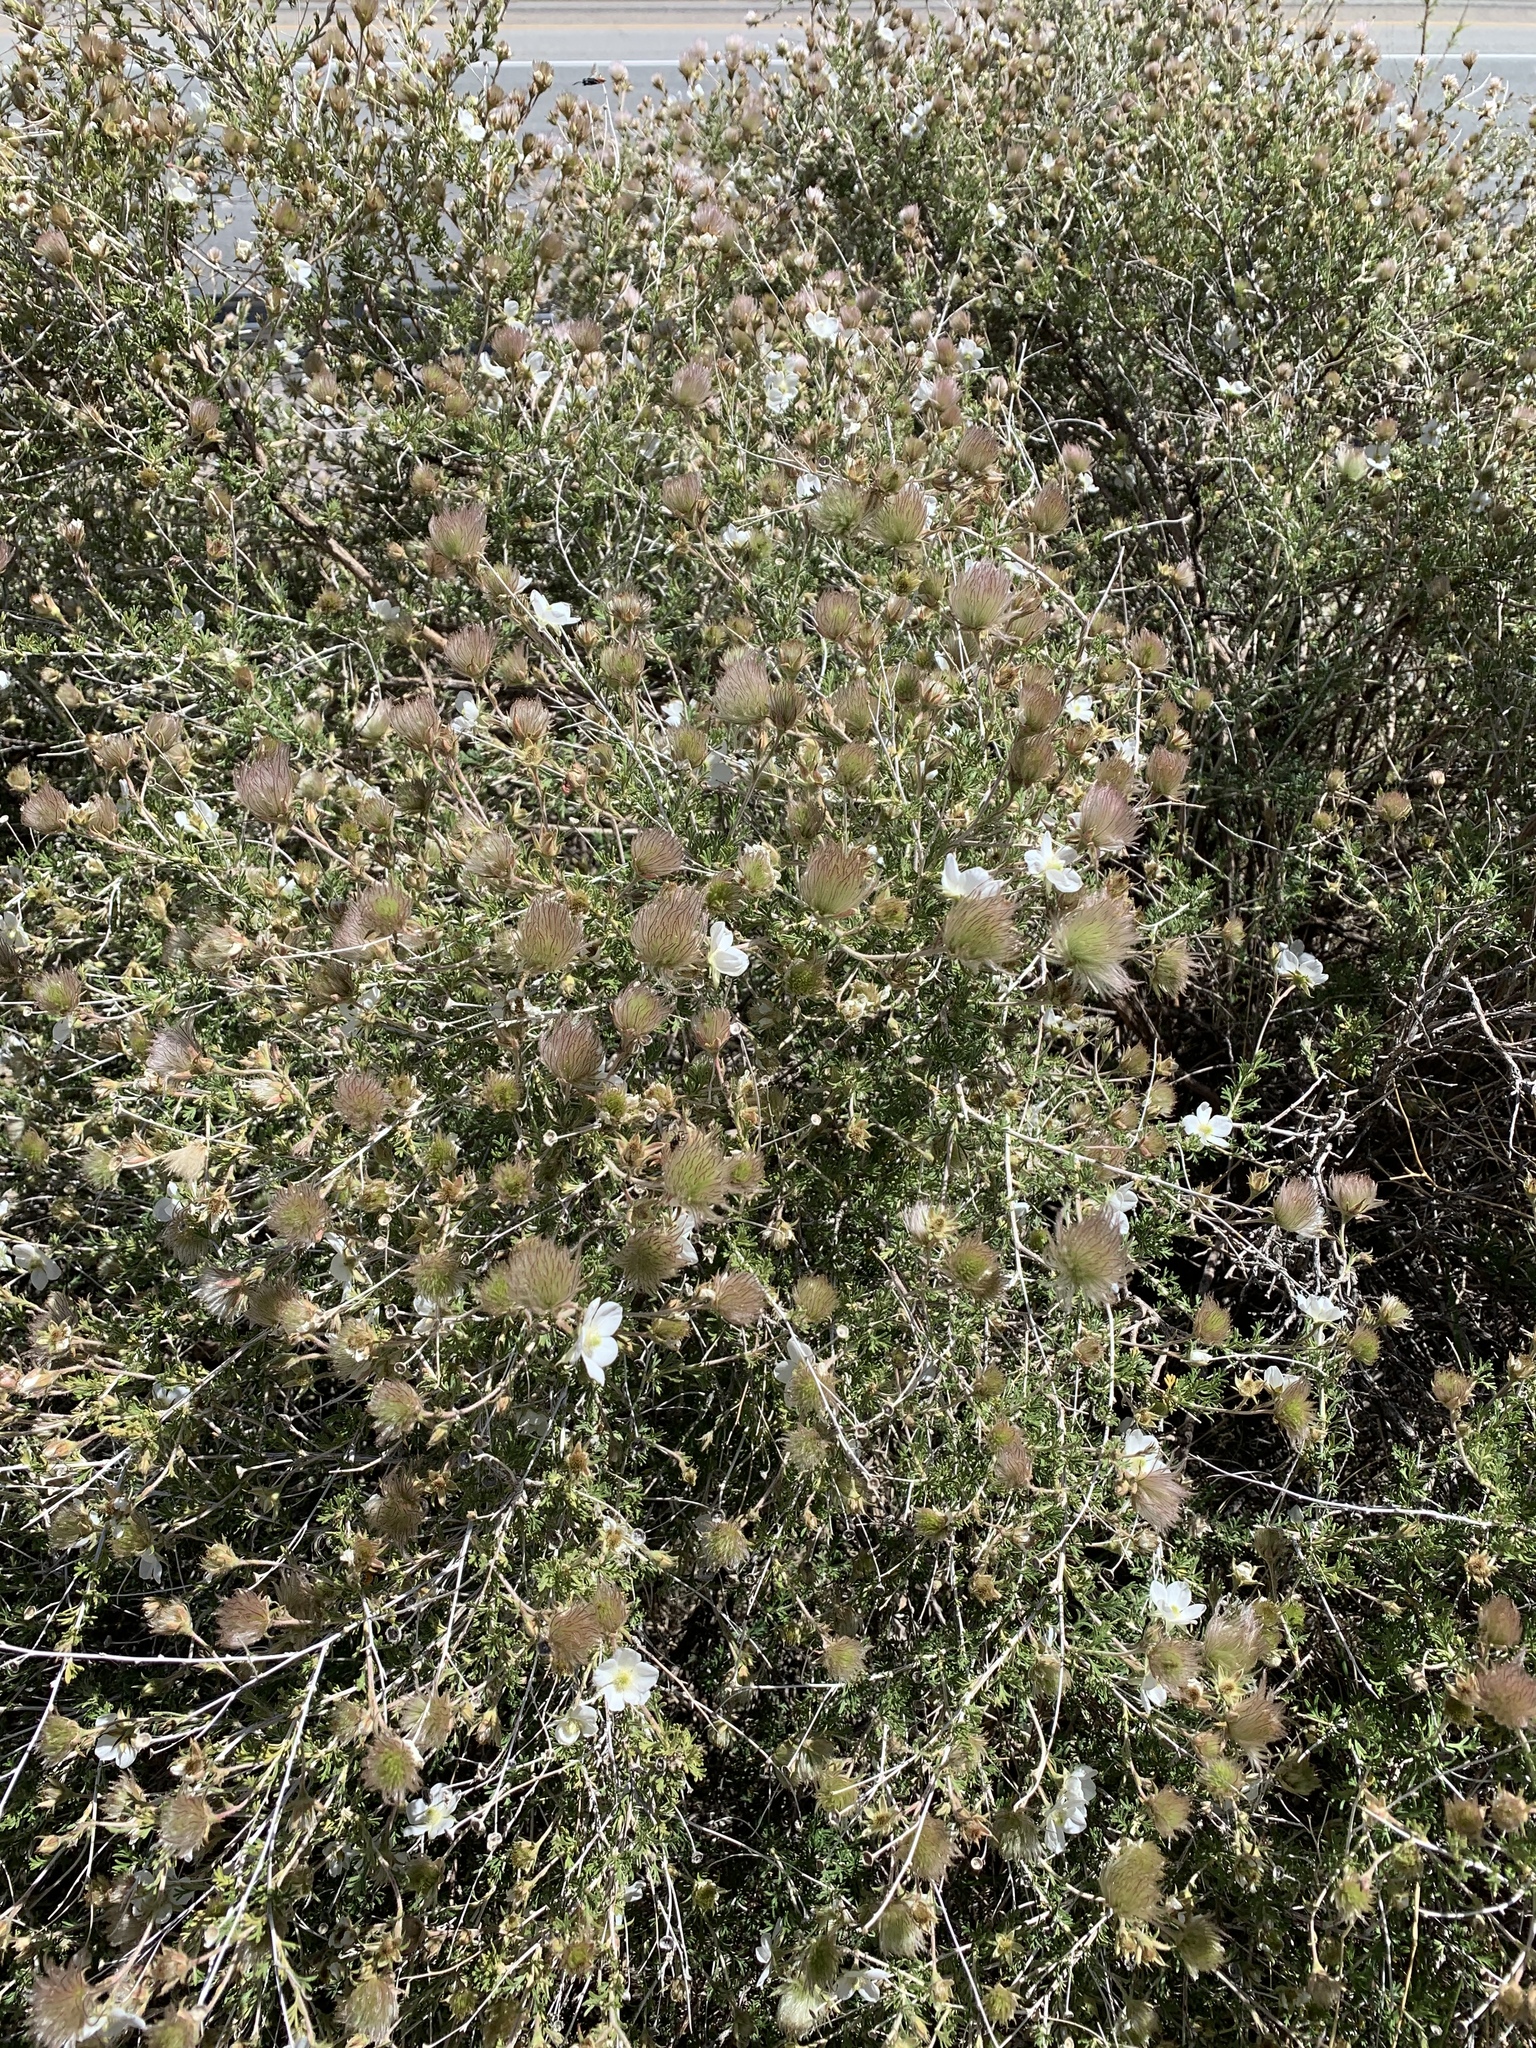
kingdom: Plantae
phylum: Tracheophyta
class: Magnoliopsida
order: Rosales
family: Rosaceae
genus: Fallugia
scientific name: Fallugia paradoxa
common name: Apache-plume
